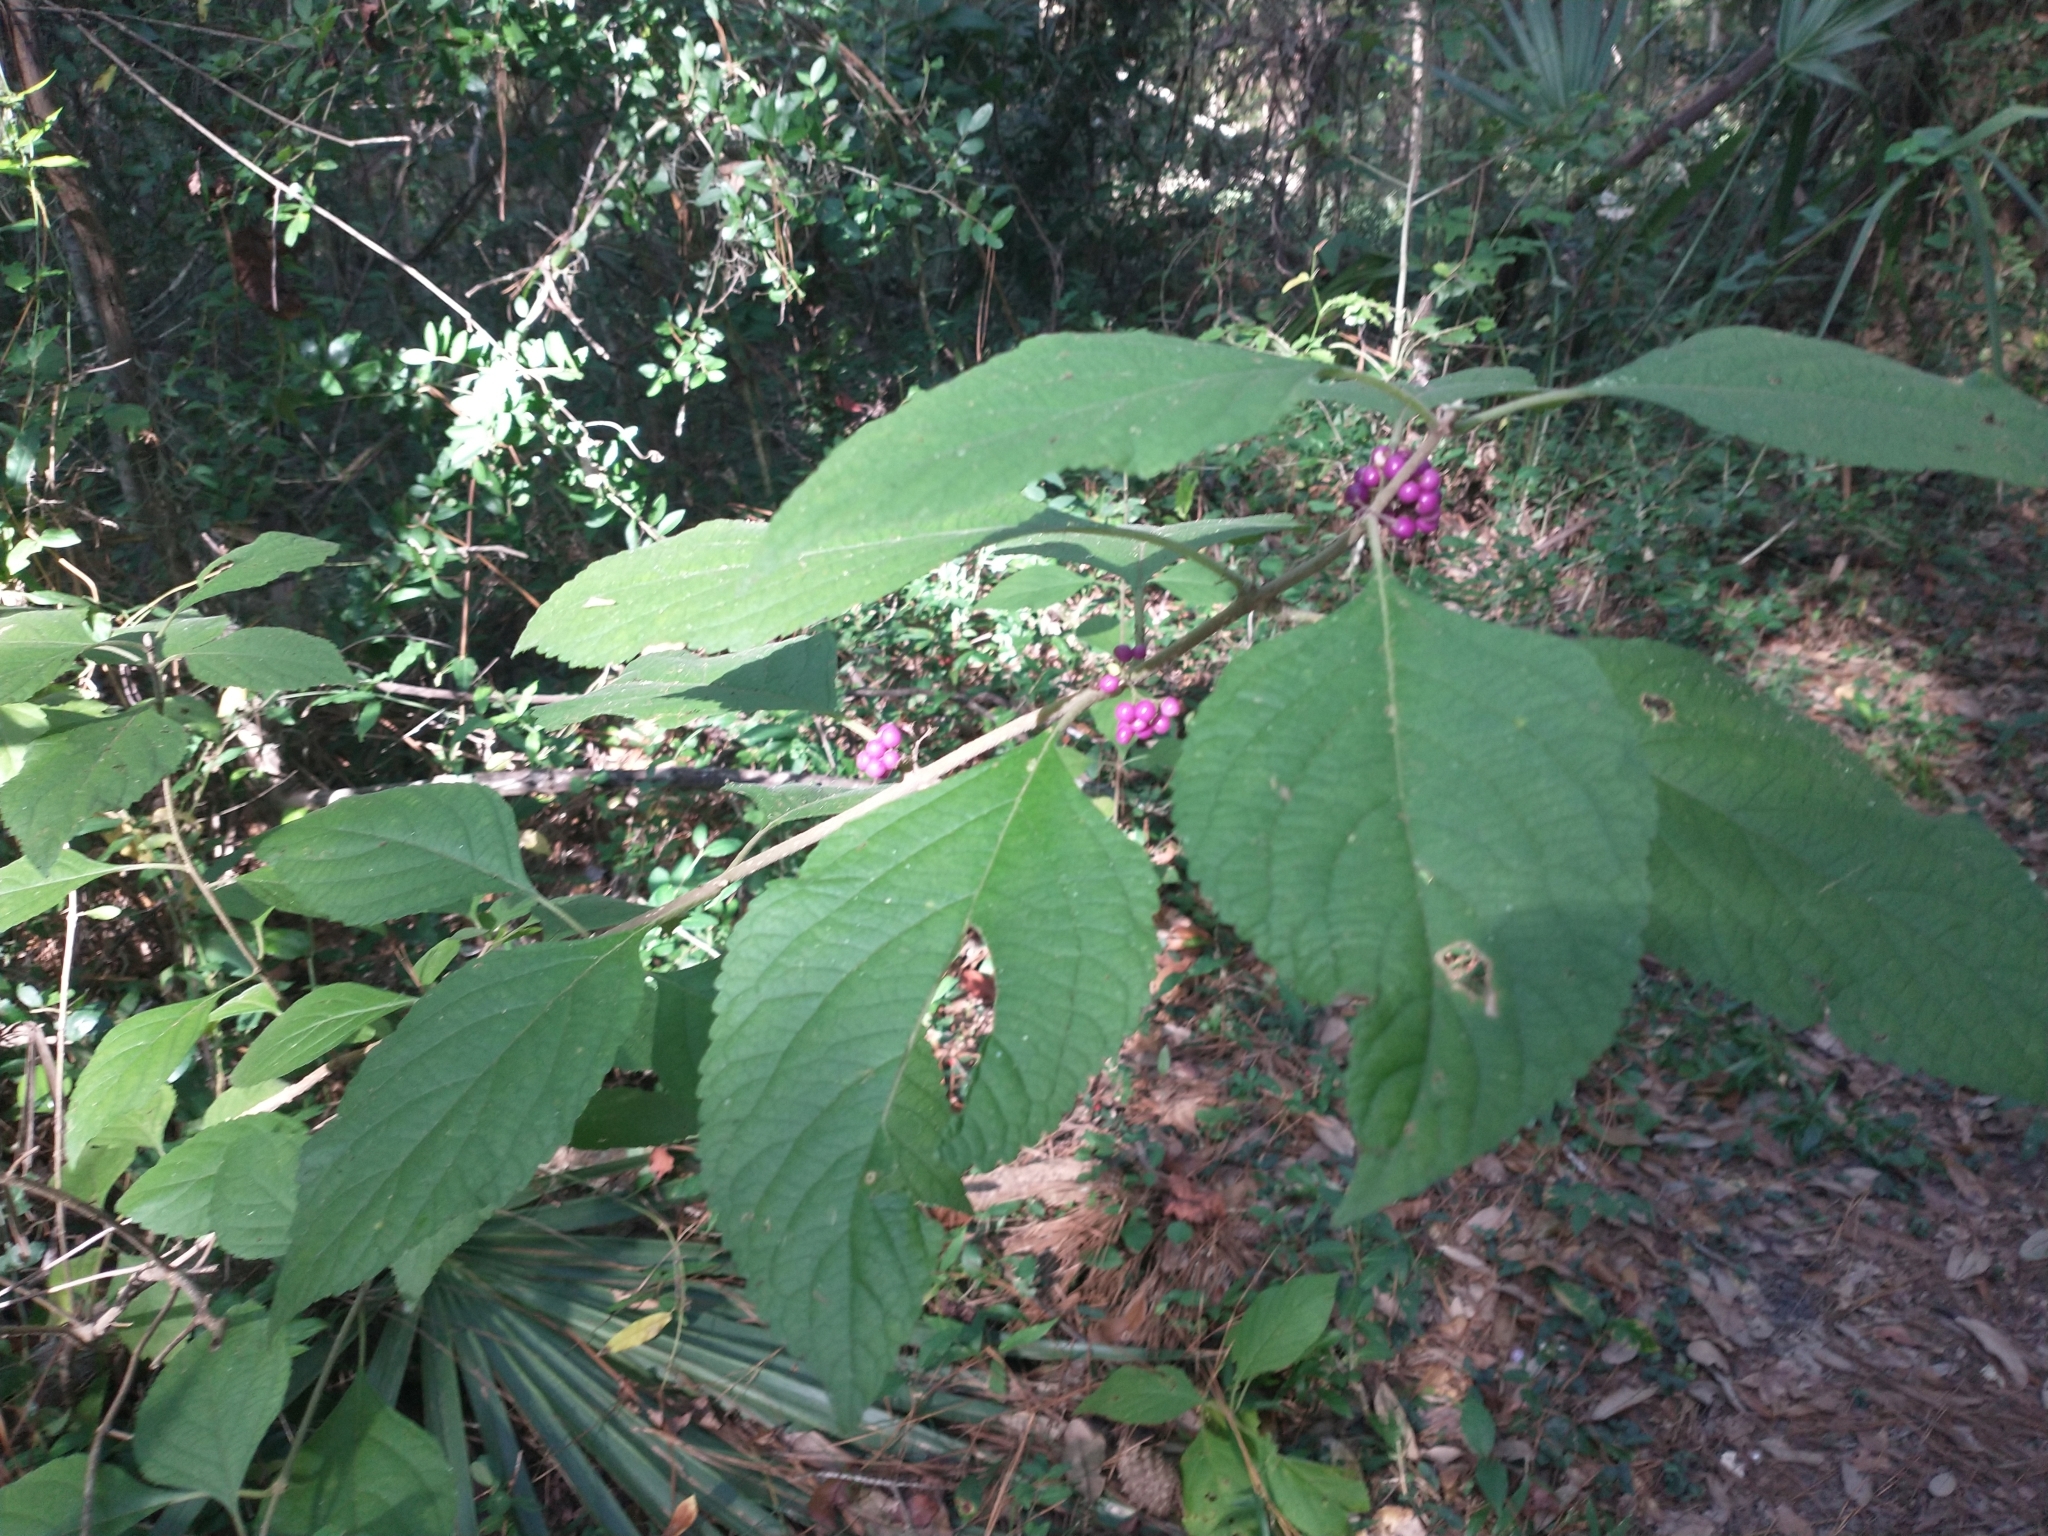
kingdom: Plantae
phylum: Tracheophyta
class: Magnoliopsida
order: Lamiales
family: Lamiaceae
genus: Callicarpa
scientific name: Callicarpa americana
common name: American beautyberry
